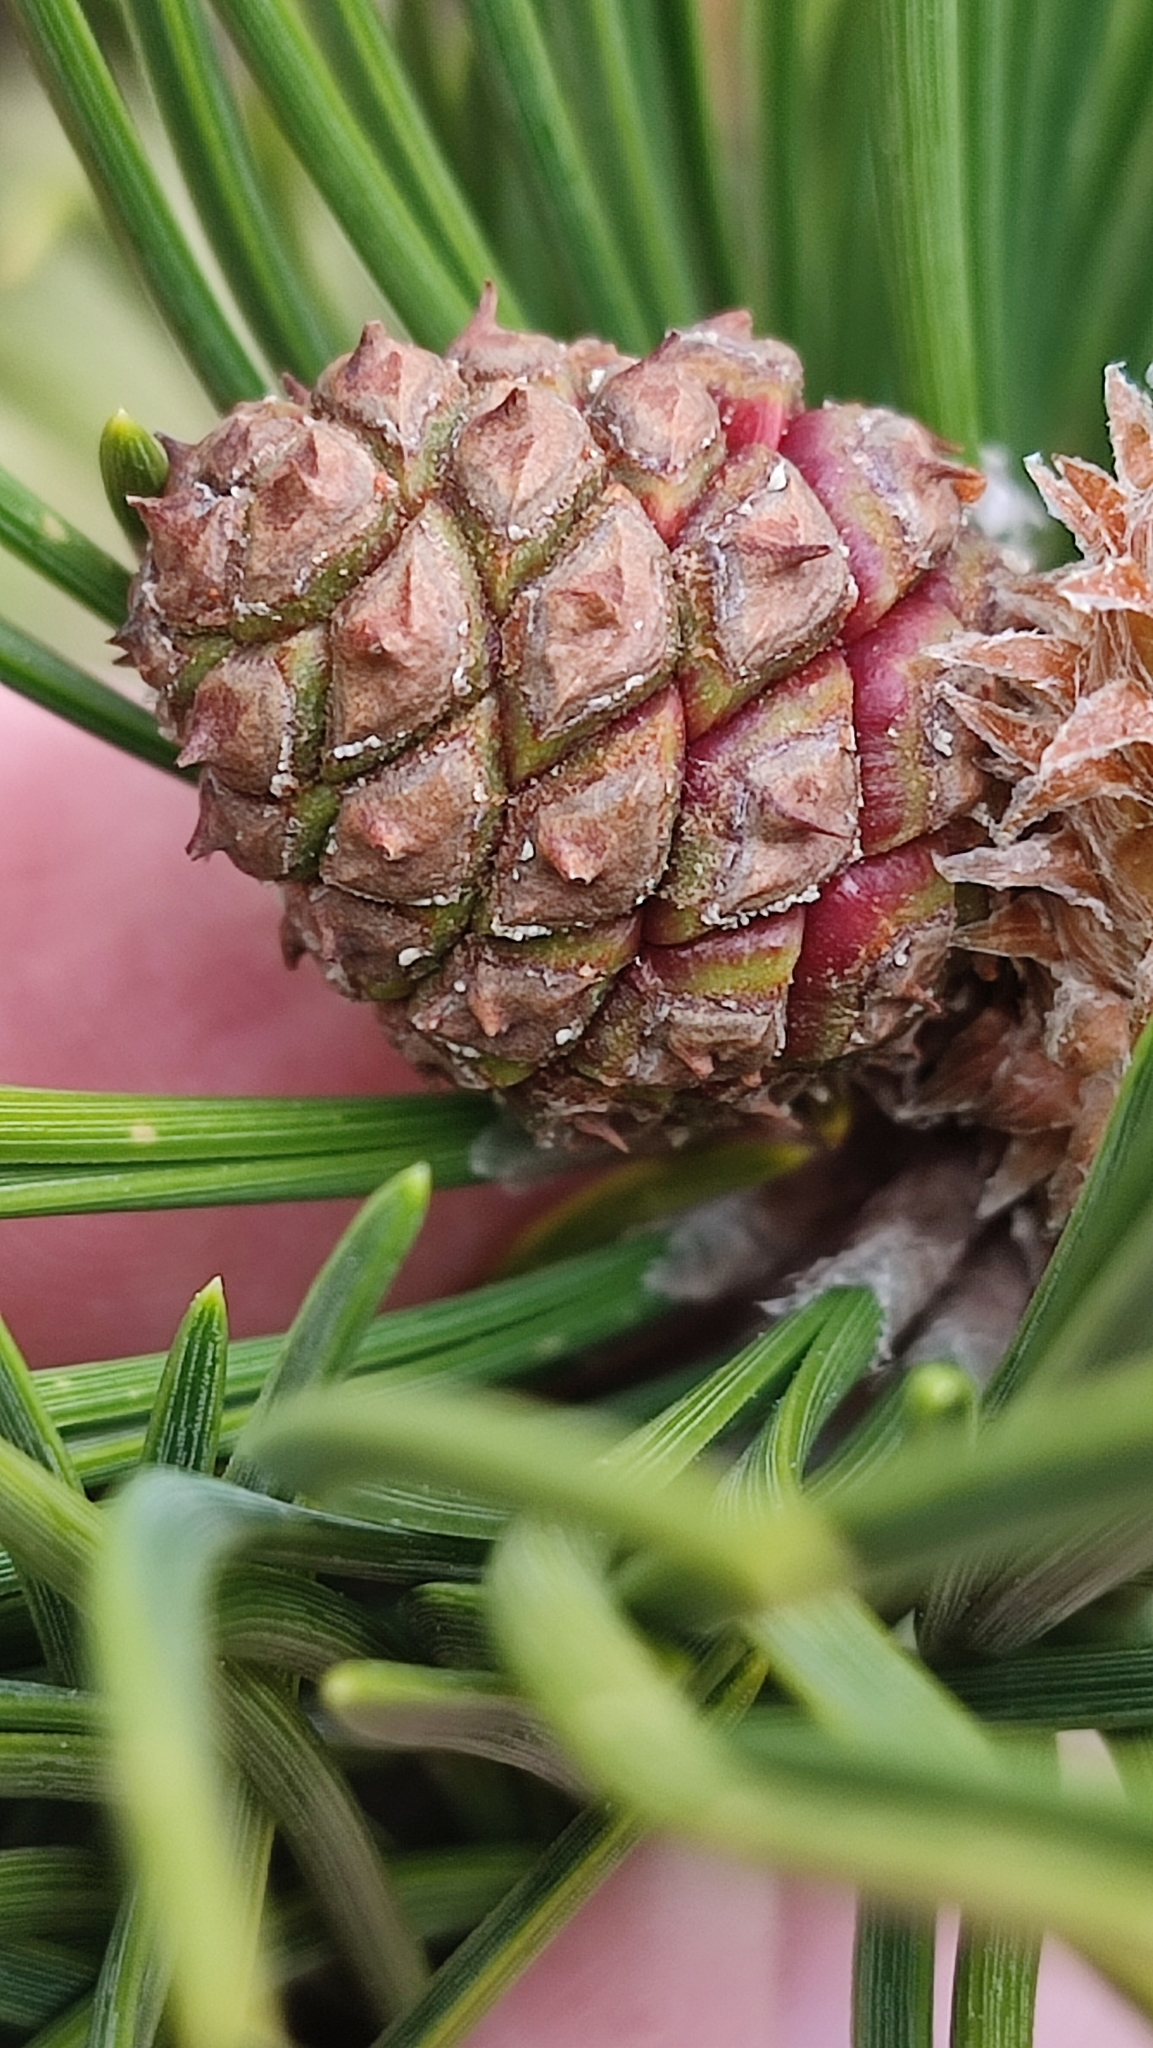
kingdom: Plantae
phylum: Tracheophyta
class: Pinopsida
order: Pinales
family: Pinaceae
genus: Pinus
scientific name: Pinus uncinata
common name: Mountain pine
